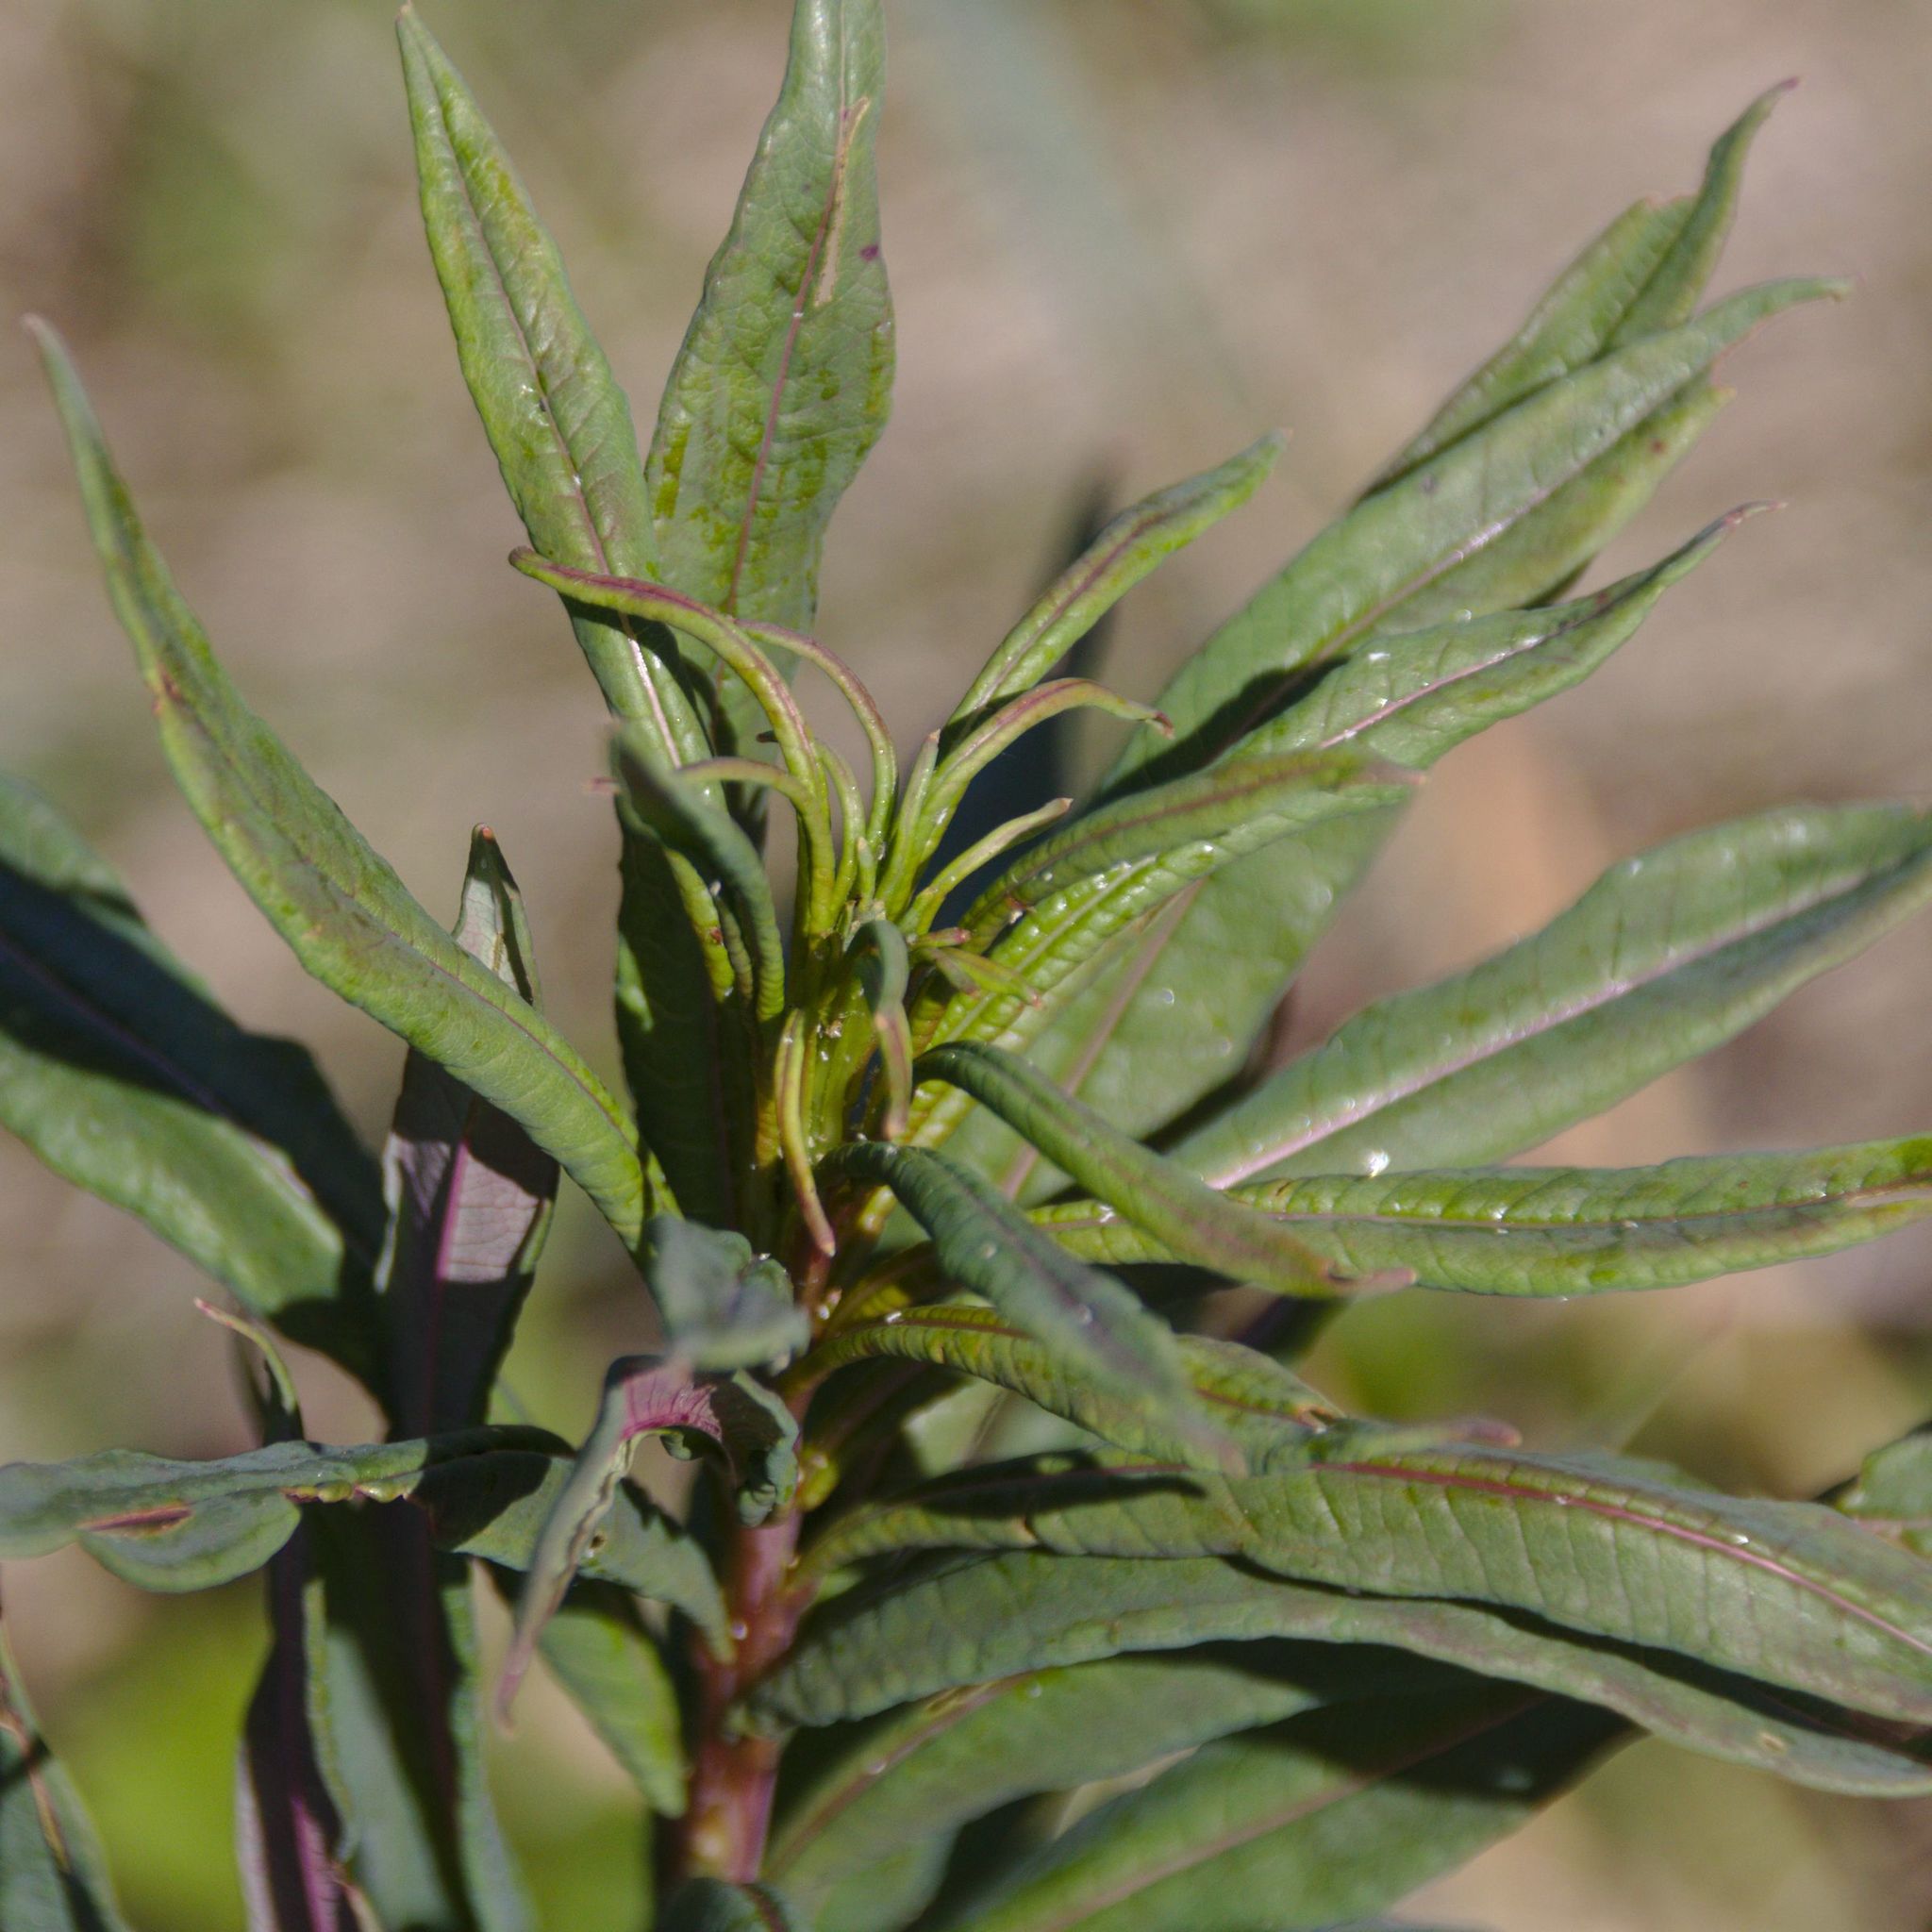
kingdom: Plantae
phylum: Tracheophyta
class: Magnoliopsida
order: Myrtales
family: Onagraceae
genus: Chamaenerion
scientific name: Chamaenerion angustifolium
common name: Fireweed
